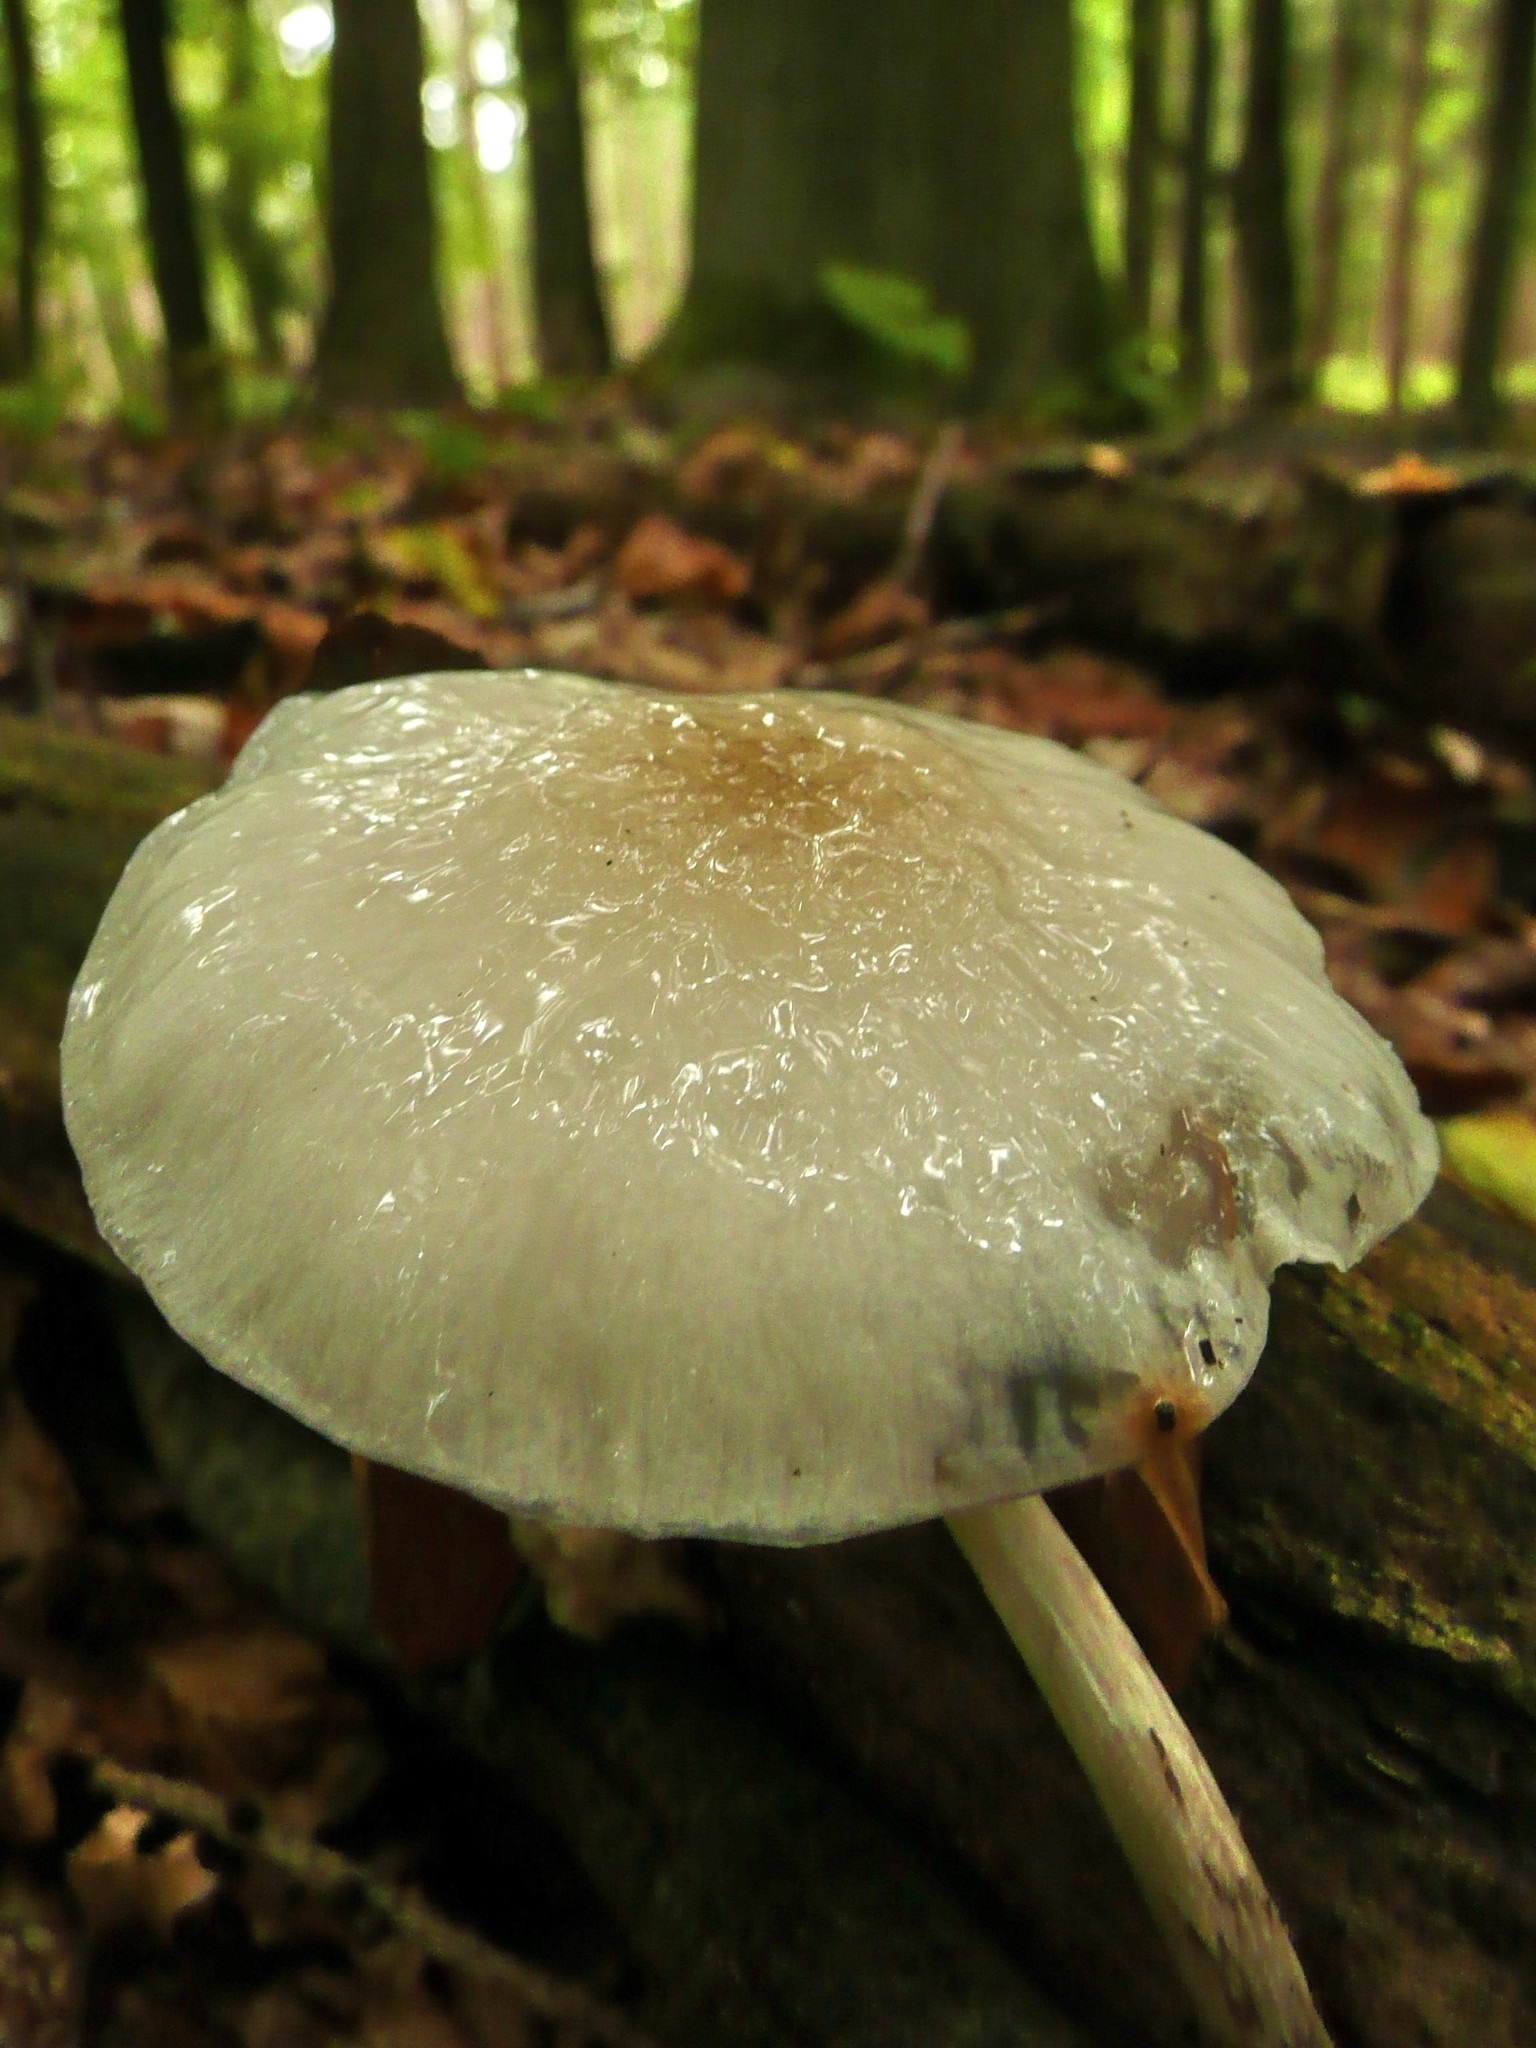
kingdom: Fungi
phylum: Basidiomycota
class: Agaricomycetes
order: Agaricales
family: Physalacriaceae
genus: Mucidula
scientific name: Mucidula mucida
